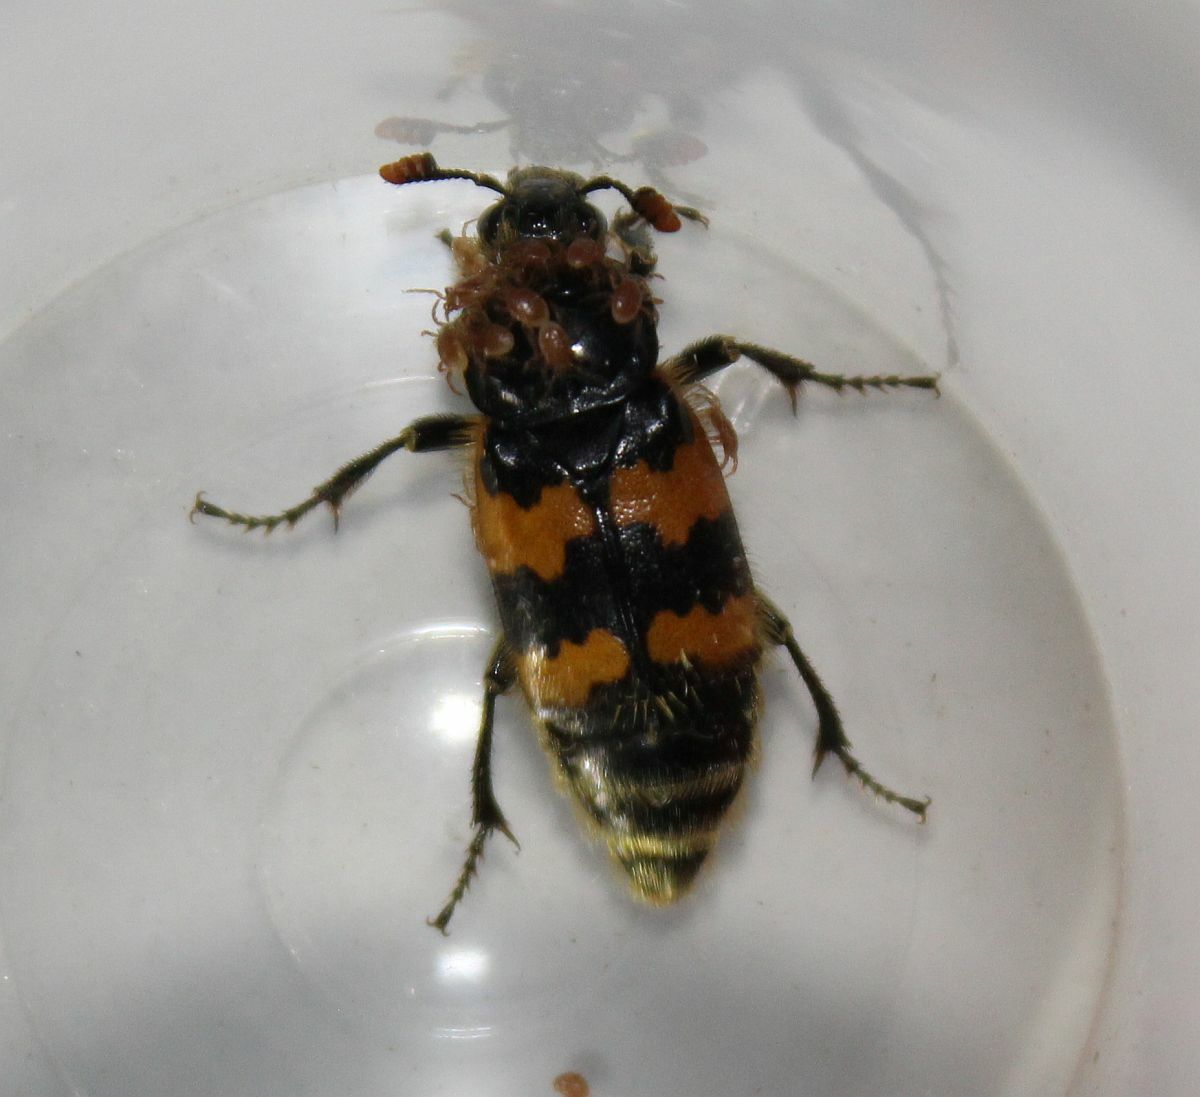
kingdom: Animalia
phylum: Arthropoda
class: Insecta
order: Coleoptera
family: Staphylinidae
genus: Nicrophorus
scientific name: Nicrophorus vespillo
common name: Common burying beetle
